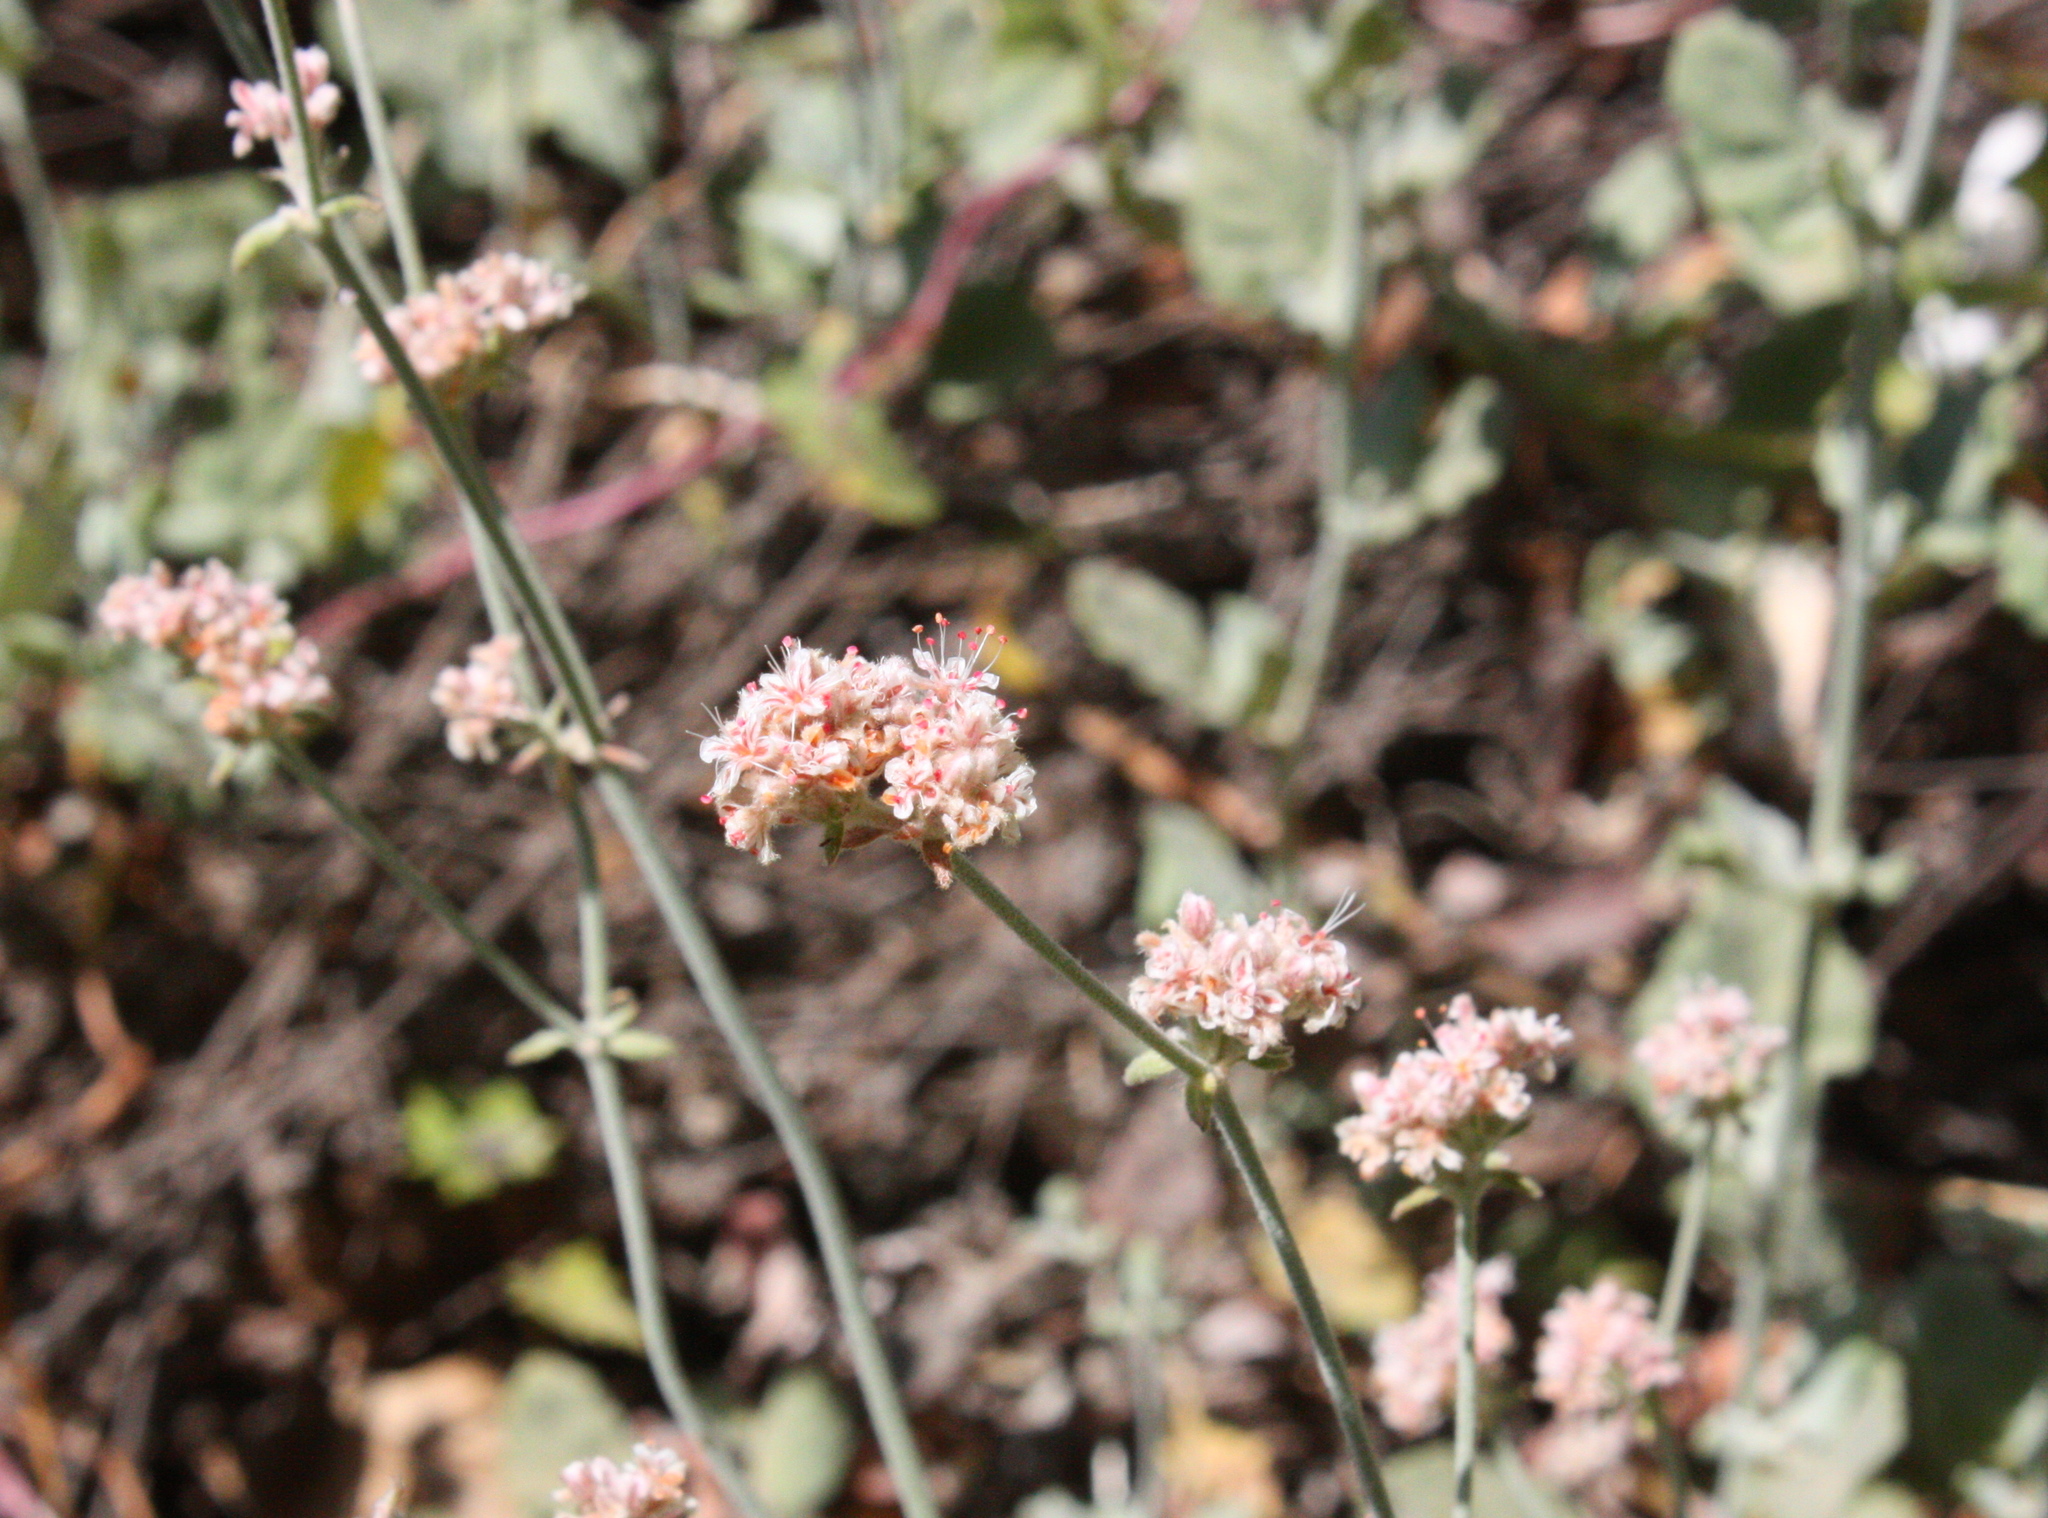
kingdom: Plantae
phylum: Tracheophyta
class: Magnoliopsida
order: Caryophyllales
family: Polygonaceae
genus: Eriogonum
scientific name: Eriogonum cinereum
